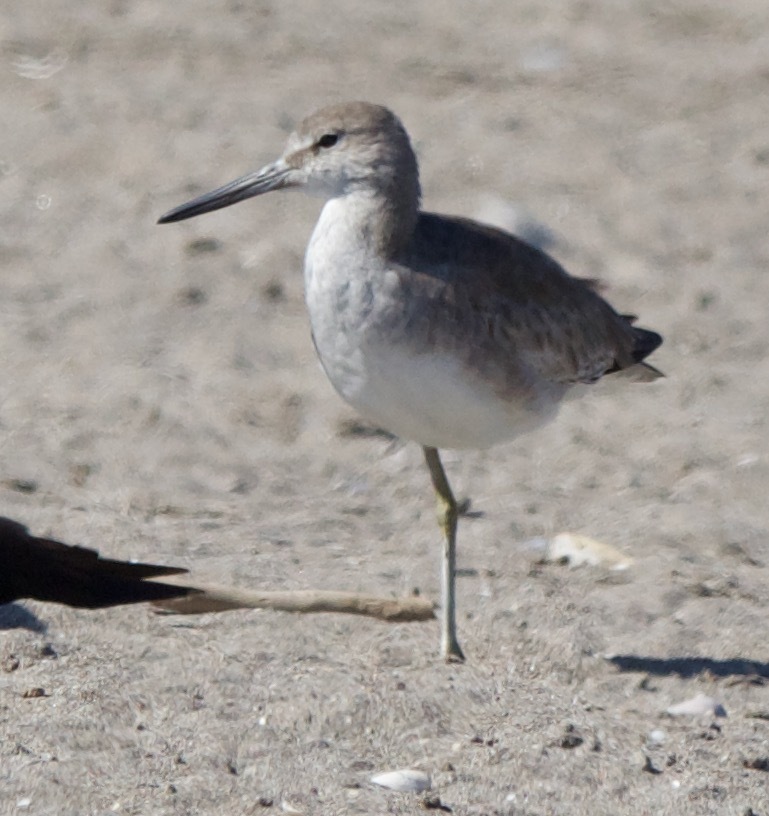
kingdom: Animalia
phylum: Chordata
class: Aves
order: Charadriiformes
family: Scolopacidae
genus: Tringa
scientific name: Tringa semipalmata
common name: Willet
